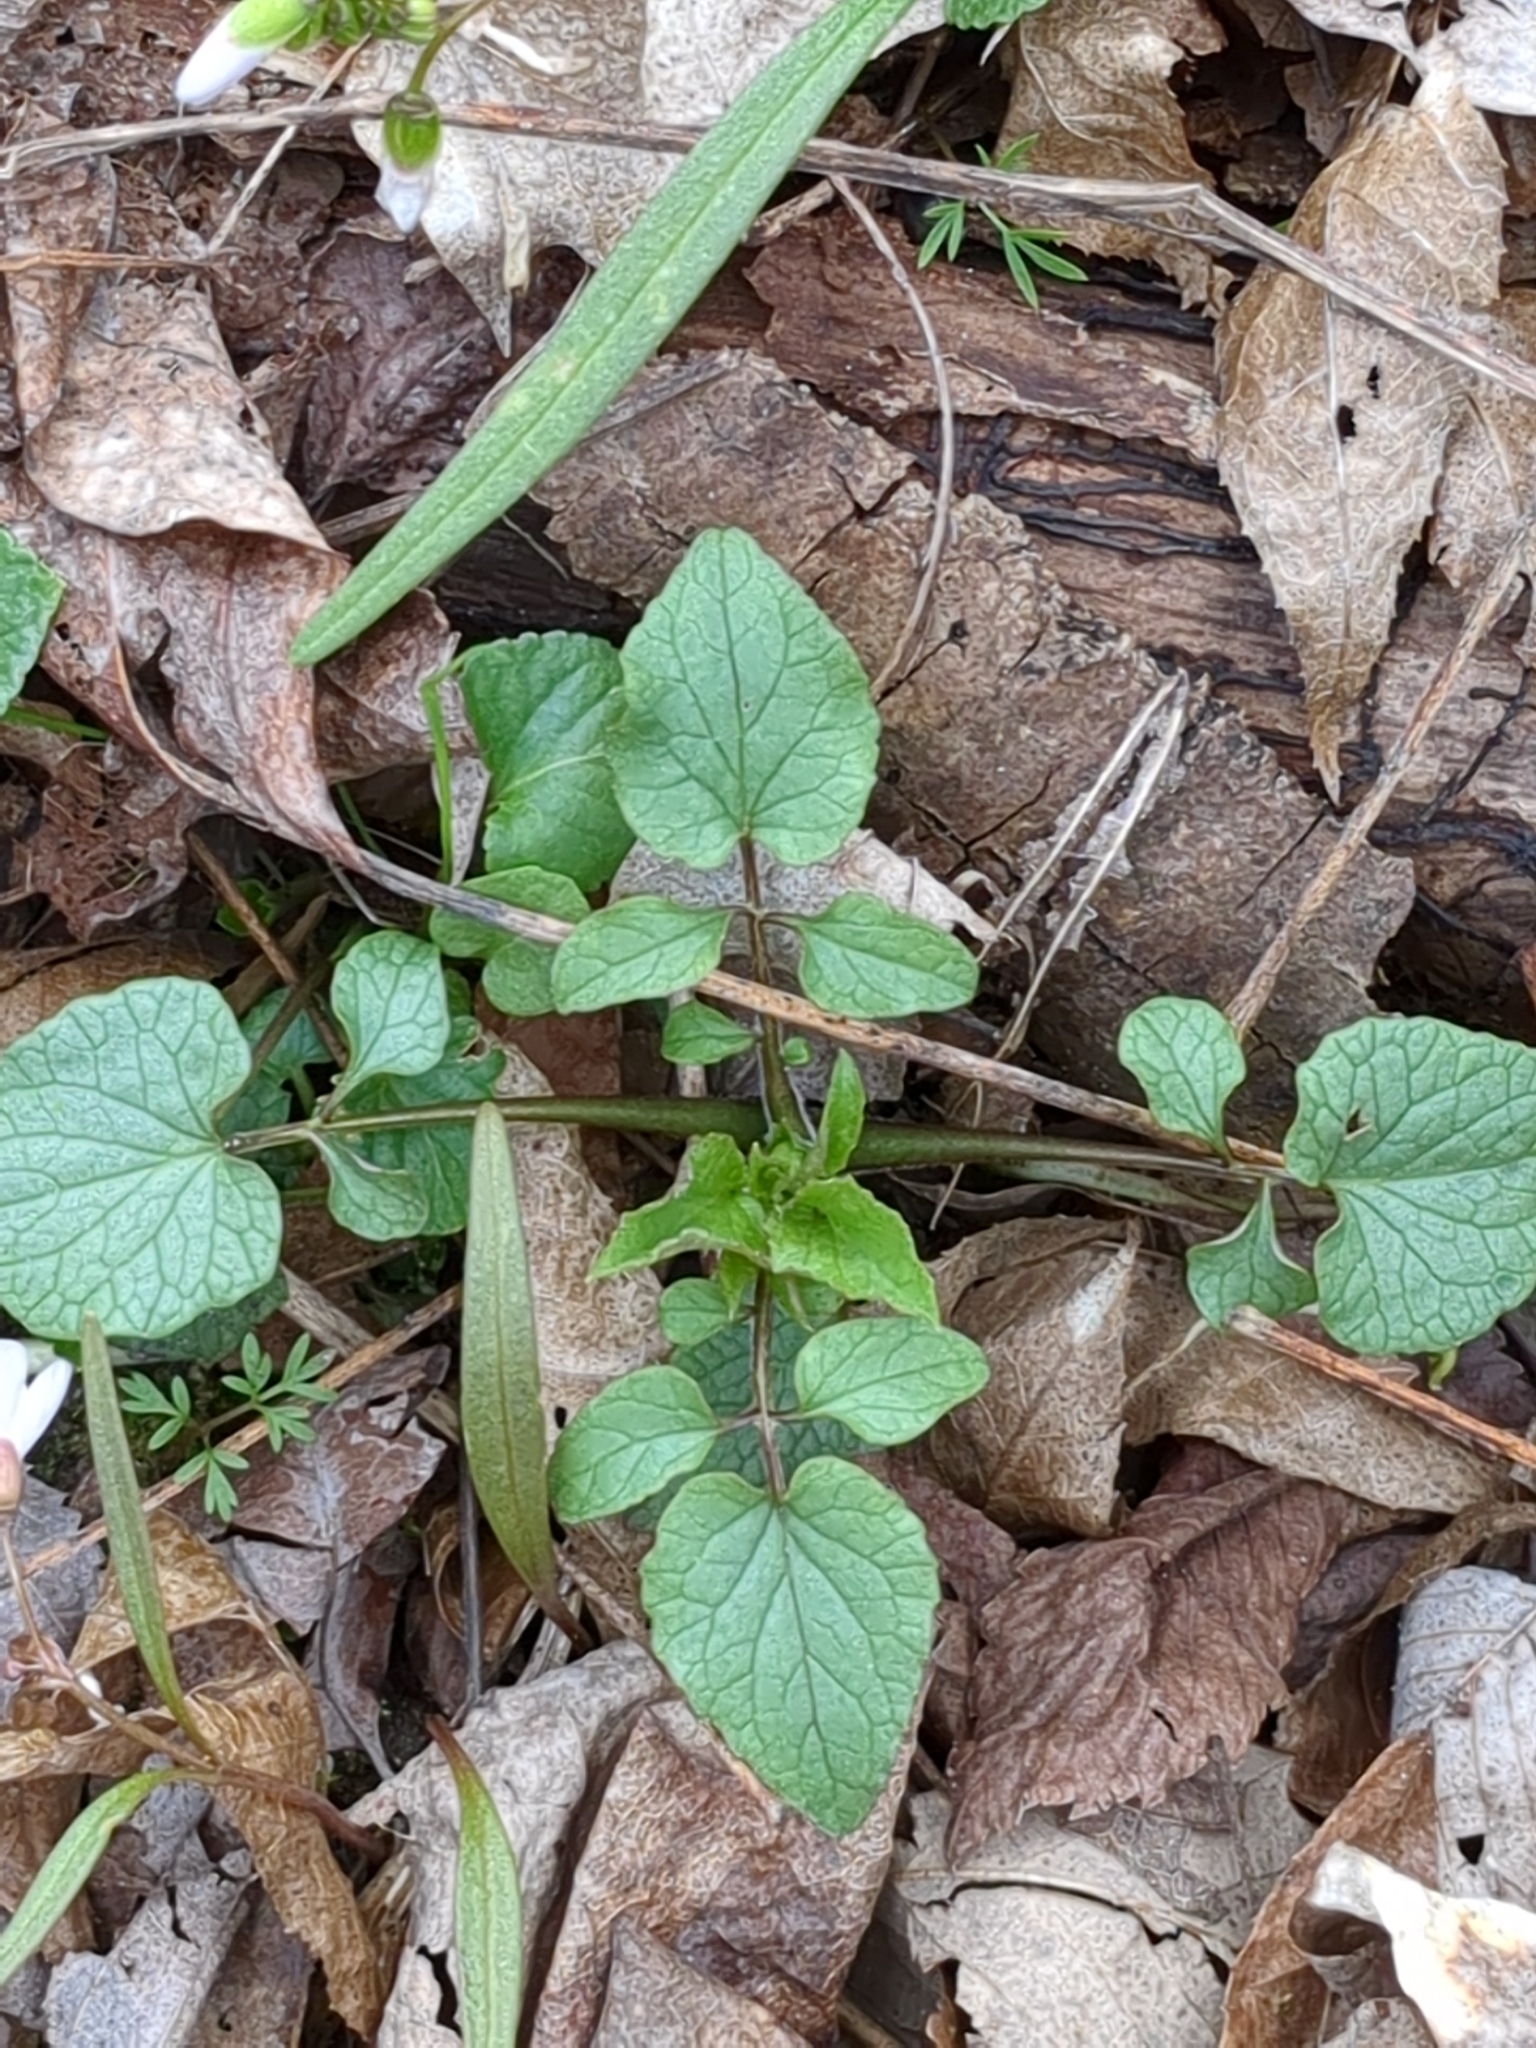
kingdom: Plantae
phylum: Tracheophyta
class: Magnoliopsida
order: Dipsacales
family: Caprifoliaceae
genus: Valeriana
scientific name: Valeriana pauciflora
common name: Long-tube valeriana
